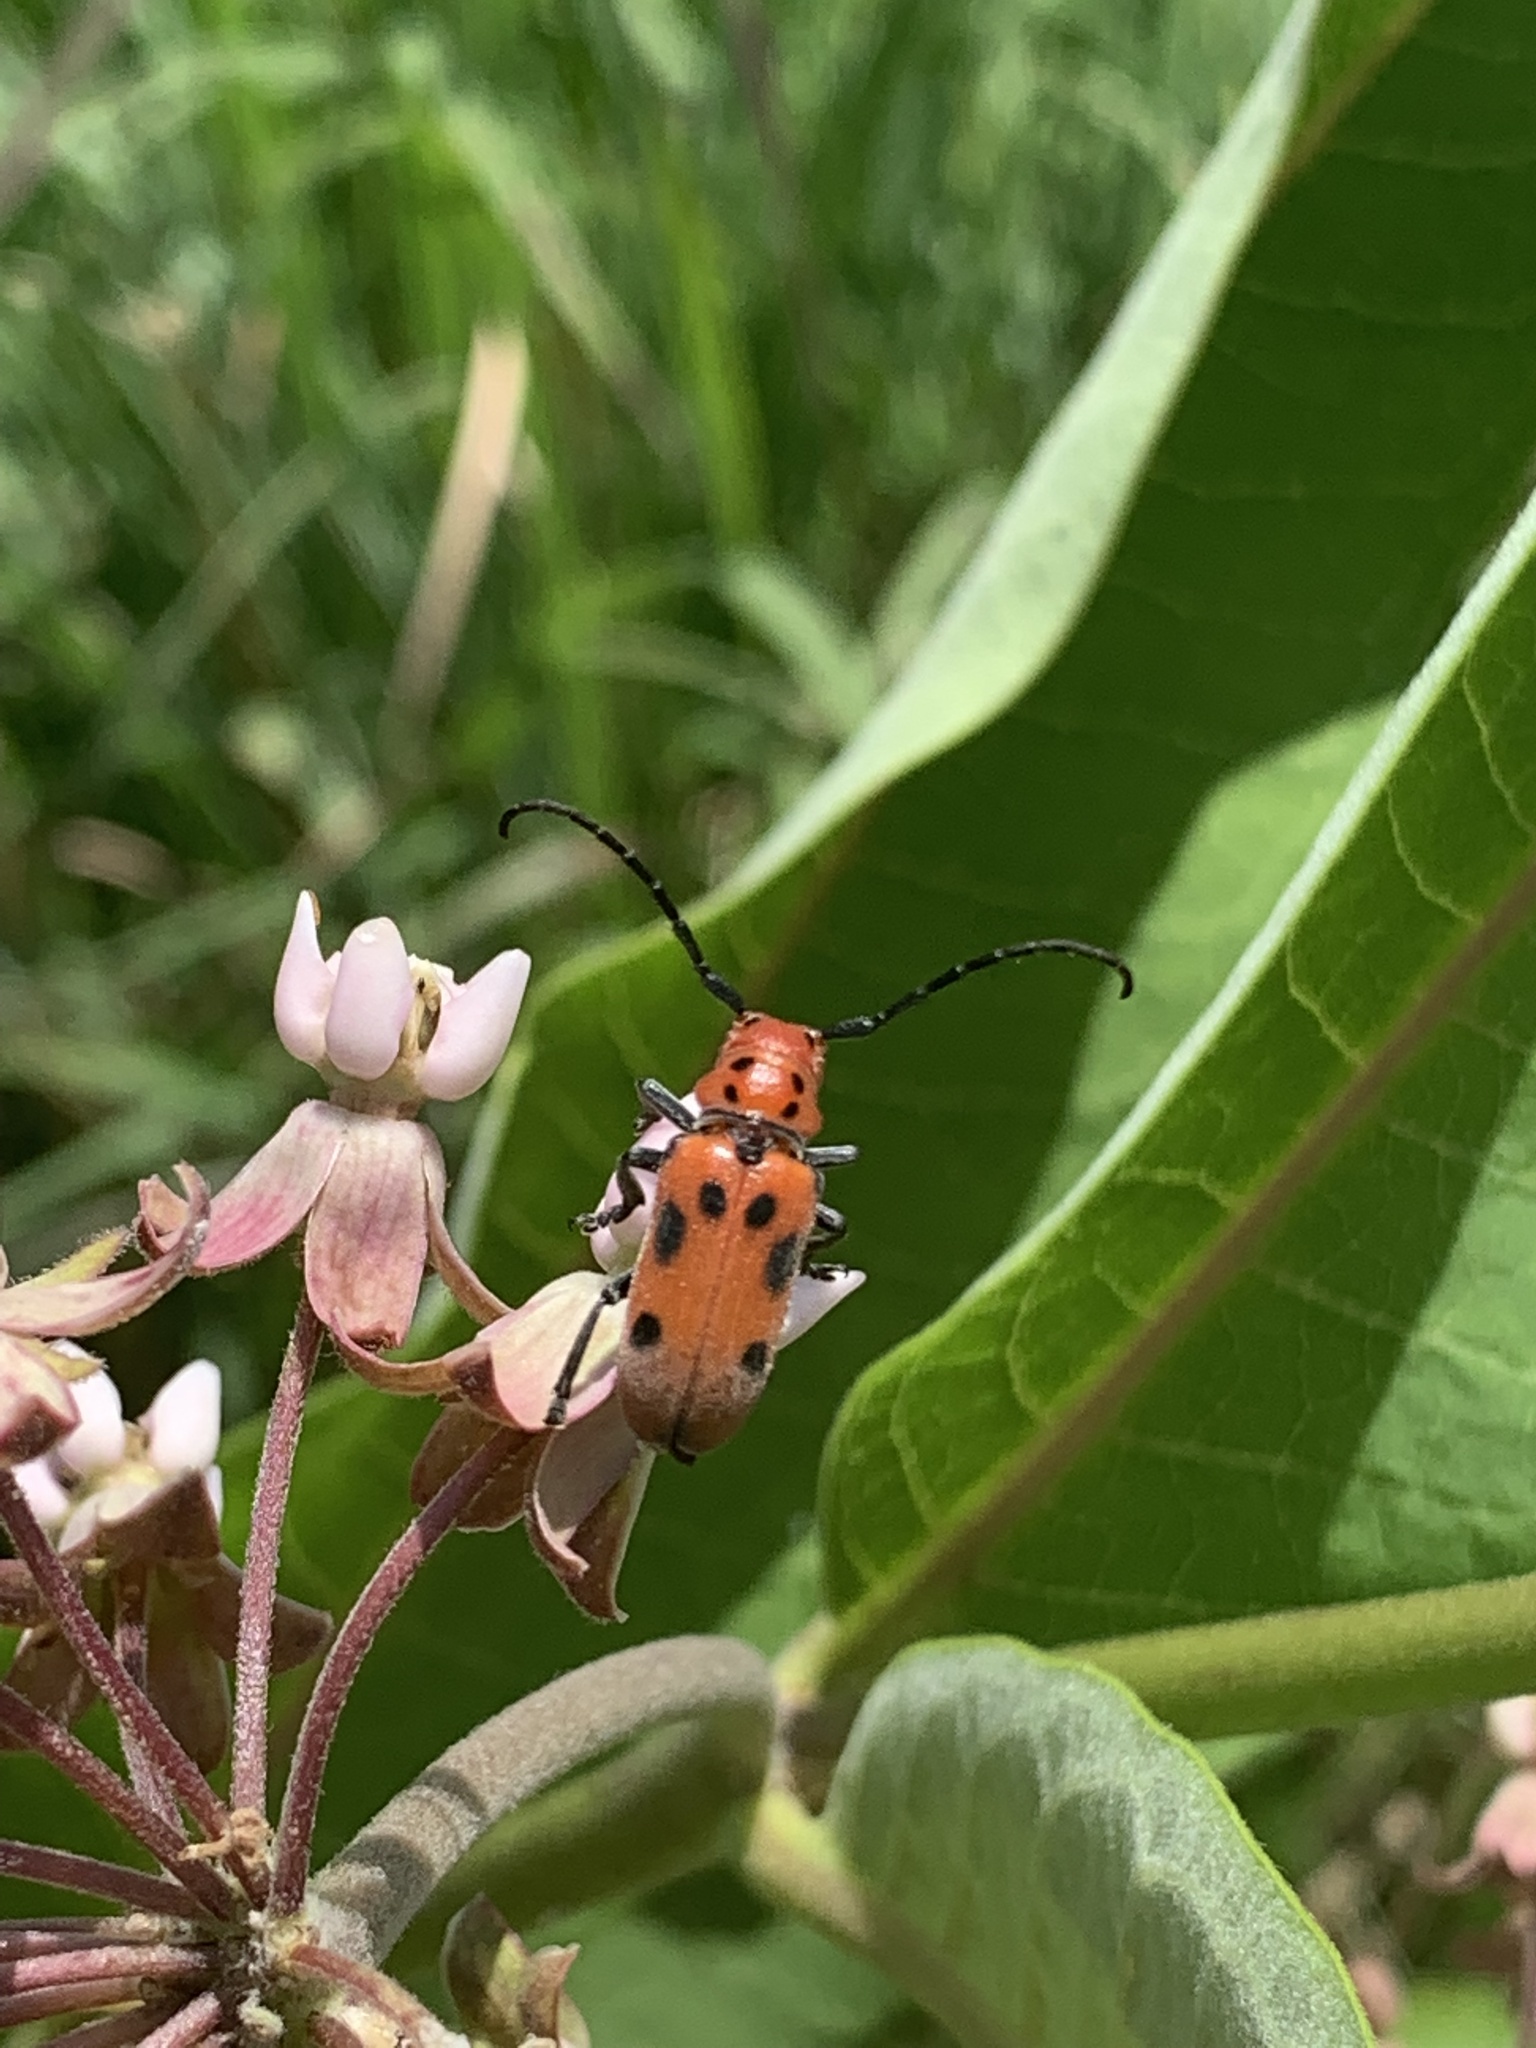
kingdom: Animalia
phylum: Arthropoda
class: Insecta
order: Coleoptera
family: Cerambycidae
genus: Tetraopes
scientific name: Tetraopes tetrophthalmus
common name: Red milkweed beetle
